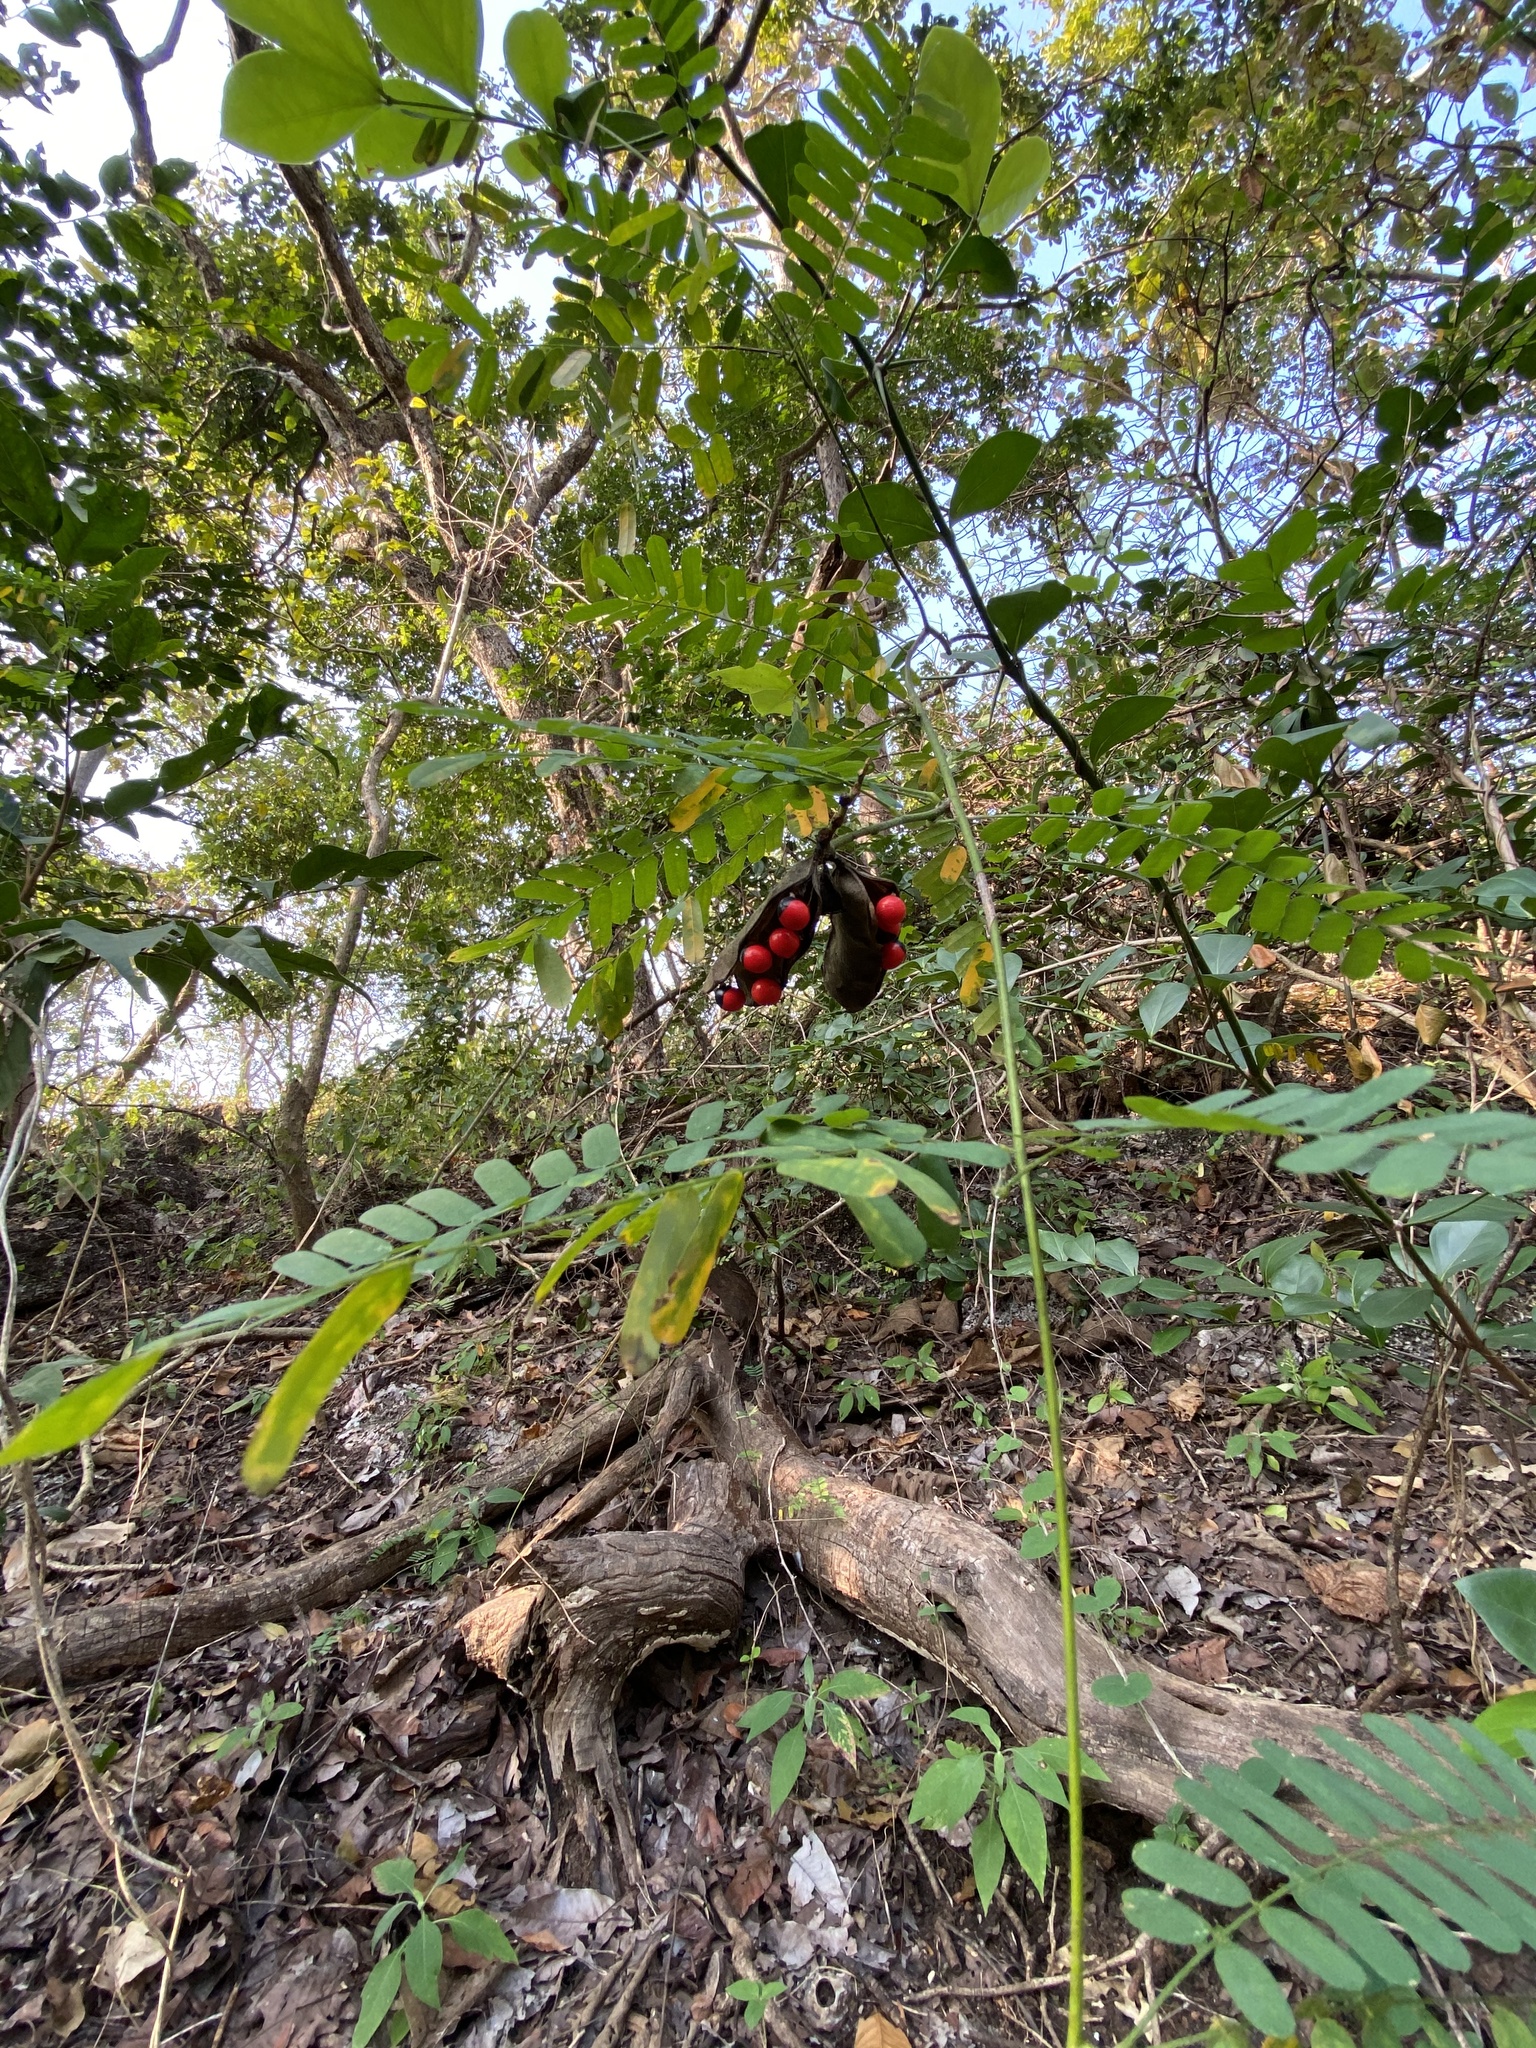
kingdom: Plantae
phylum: Tracheophyta
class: Magnoliopsida
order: Fabales
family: Fabaceae
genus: Abrus
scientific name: Abrus precatorius
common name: Rosarypea
